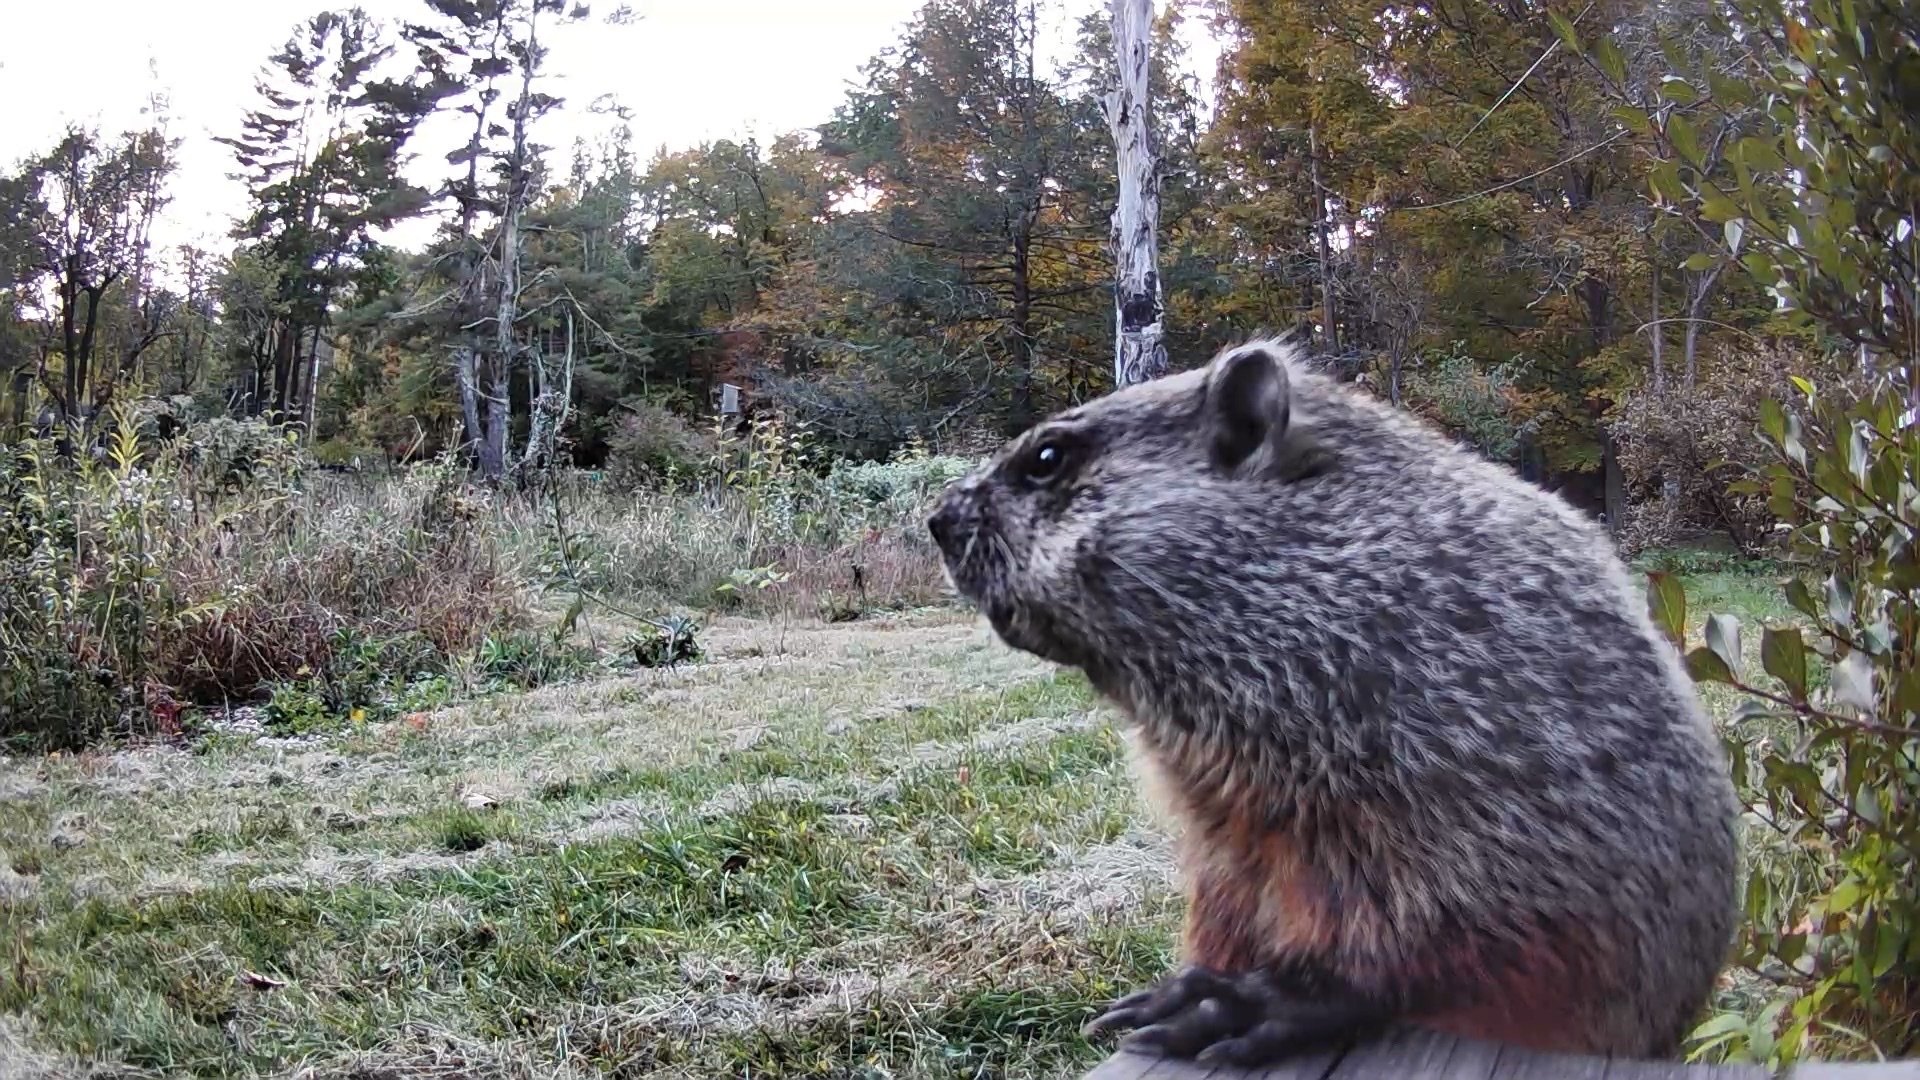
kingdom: Animalia
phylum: Chordata
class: Mammalia
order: Rodentia
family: Sciuridae
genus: Marmota
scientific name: Marmota monax
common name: Groundhog
